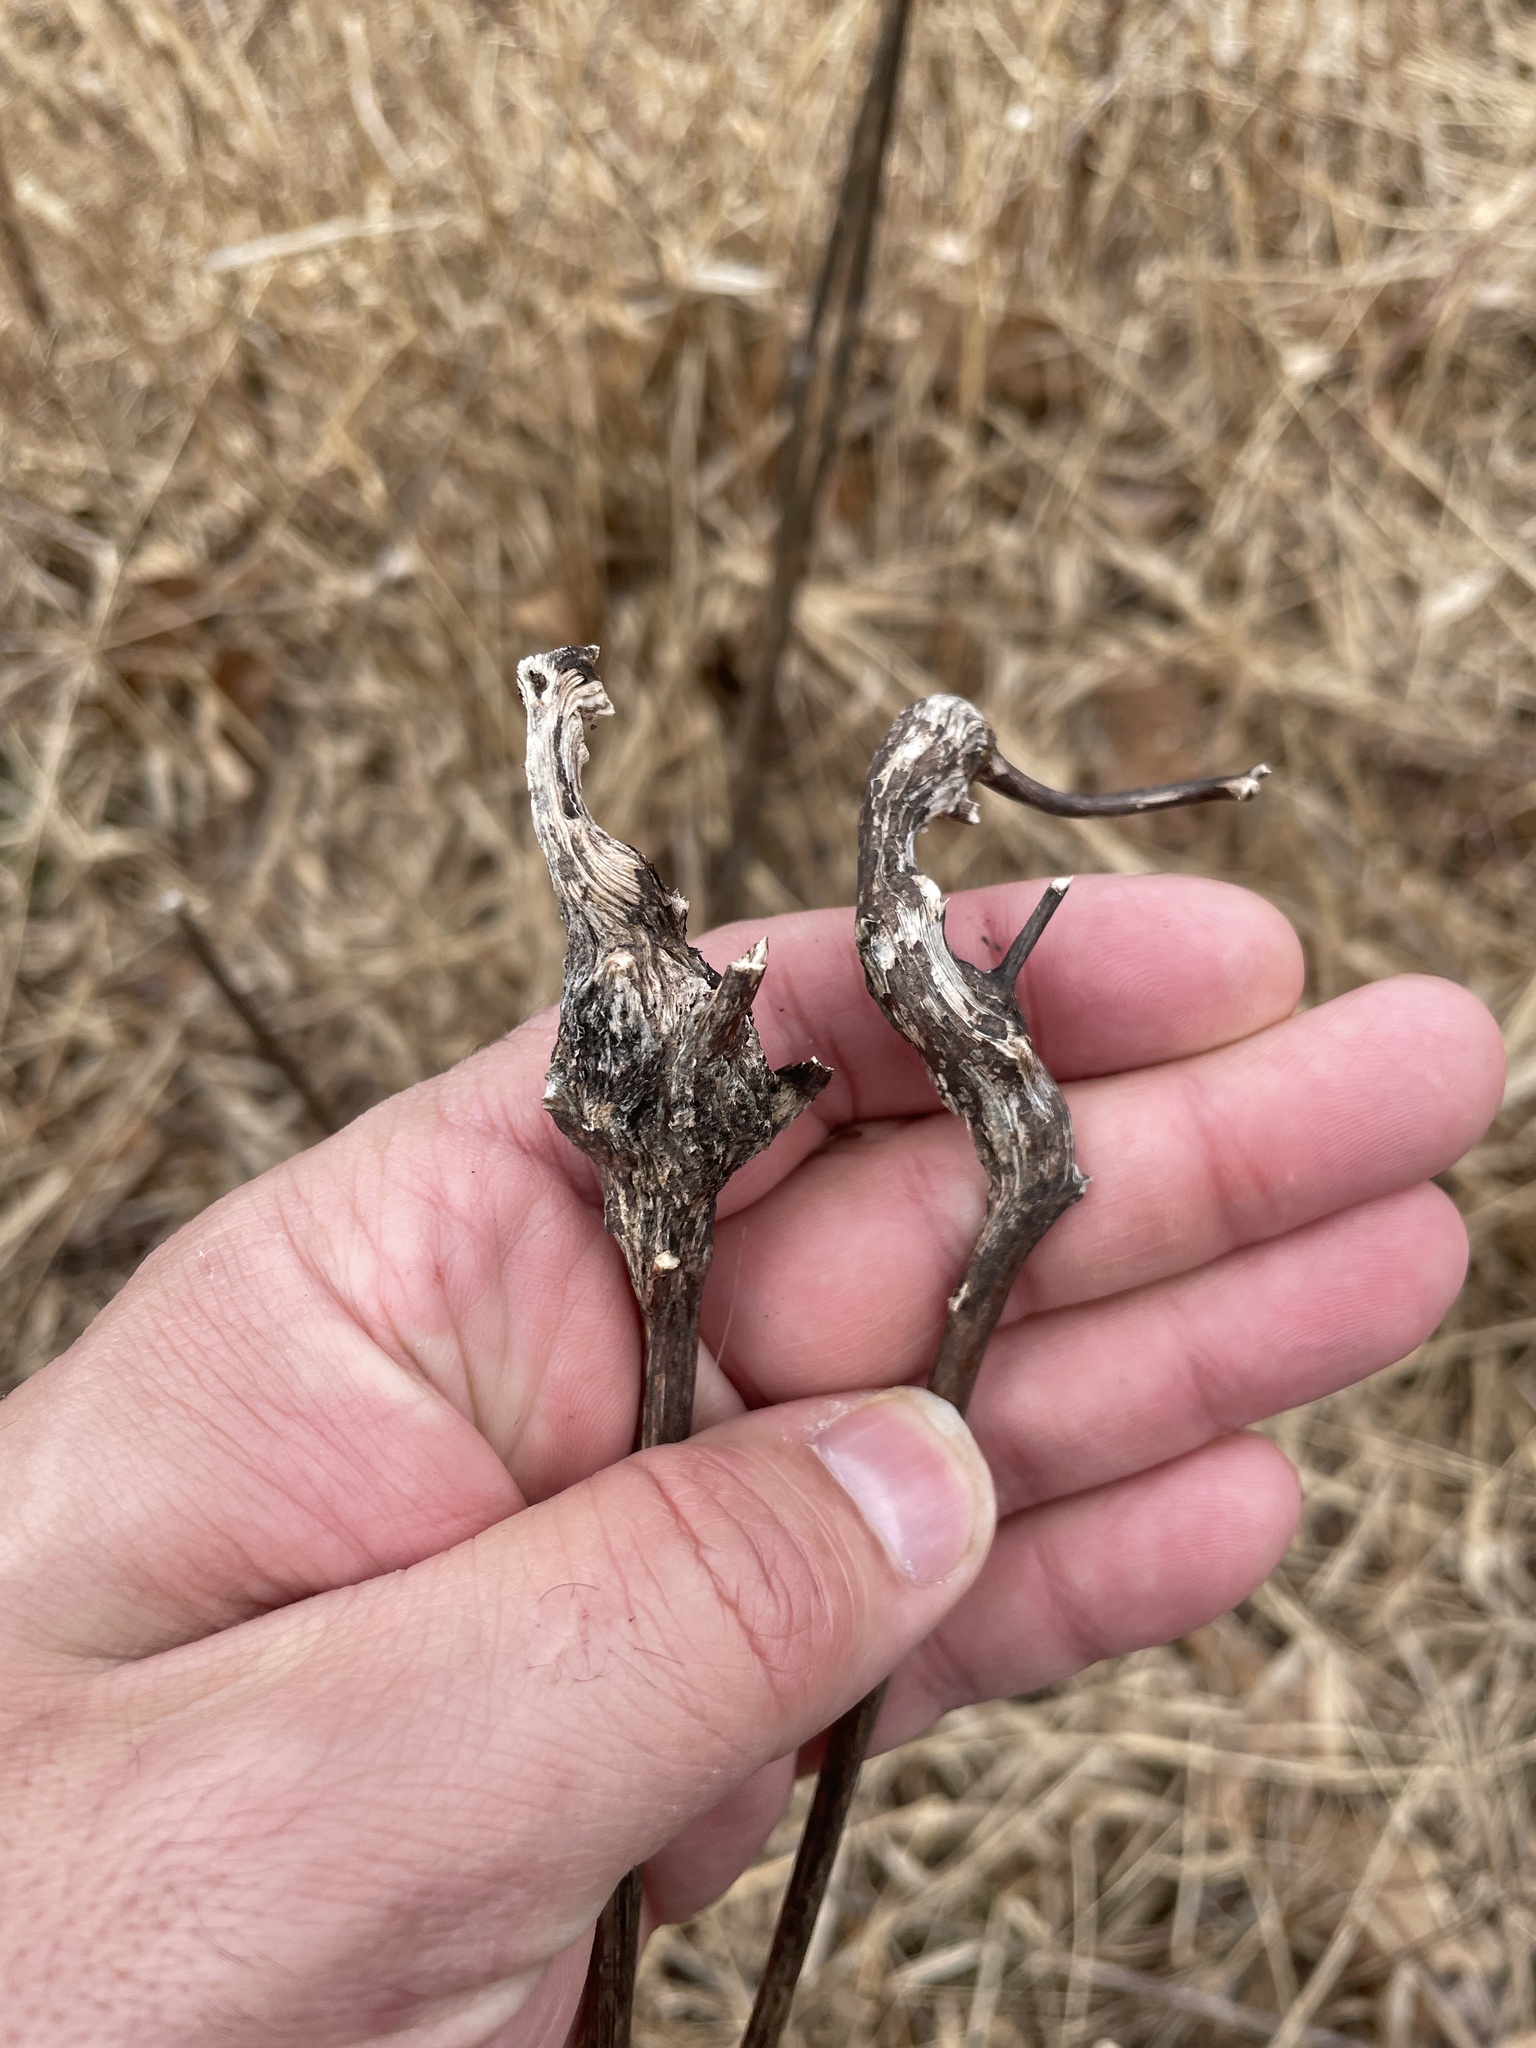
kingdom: Animalia
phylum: Arthropoda
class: Insecta
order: Hymenoptera
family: Cynipidae
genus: Aulacidea
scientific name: Aulacidea
